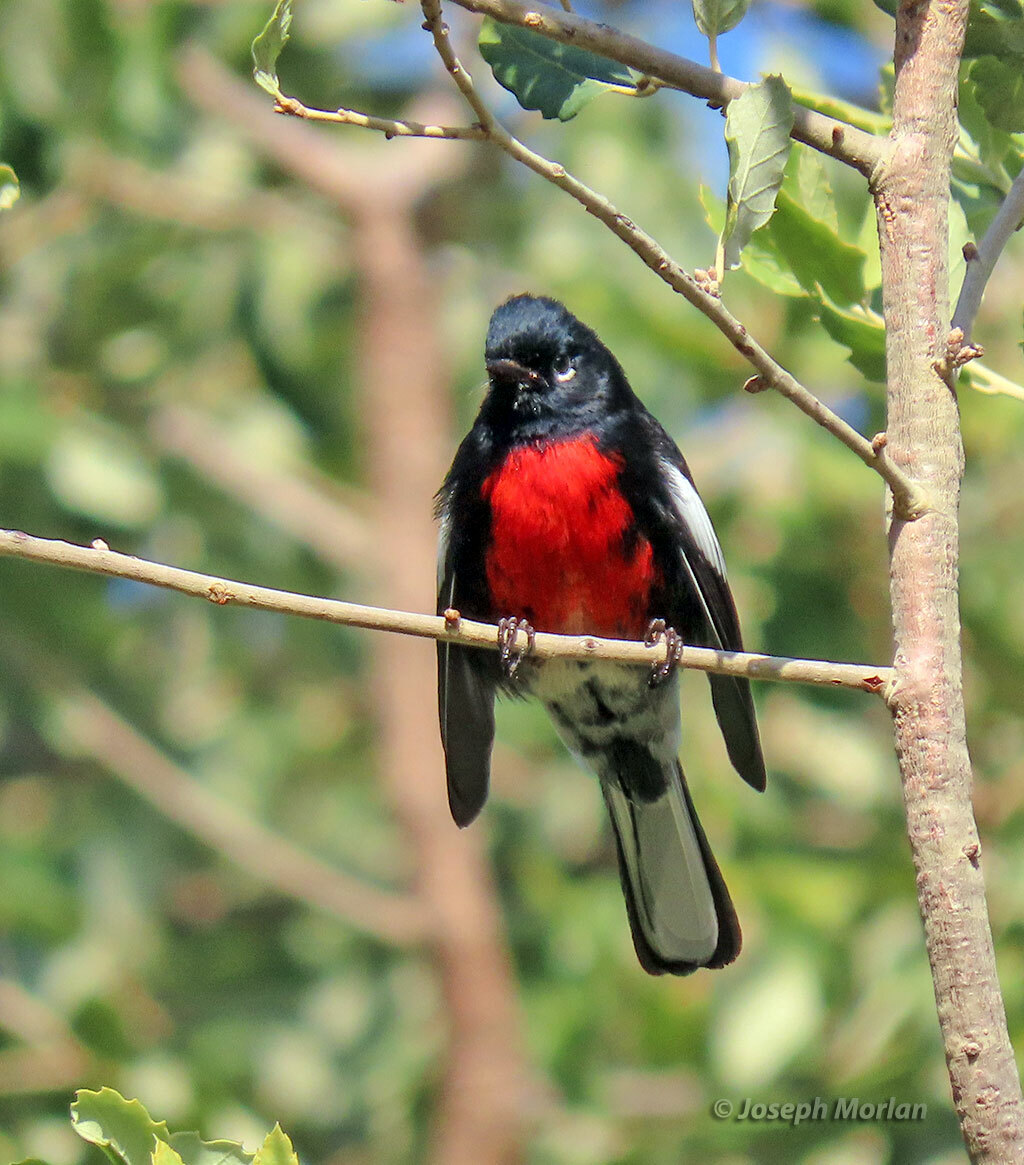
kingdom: Animalia
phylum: Chordata
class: Aves
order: Passeriformes
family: Parulidae
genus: Myioborus
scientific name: Myioborus pictus
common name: Painted whitestart
